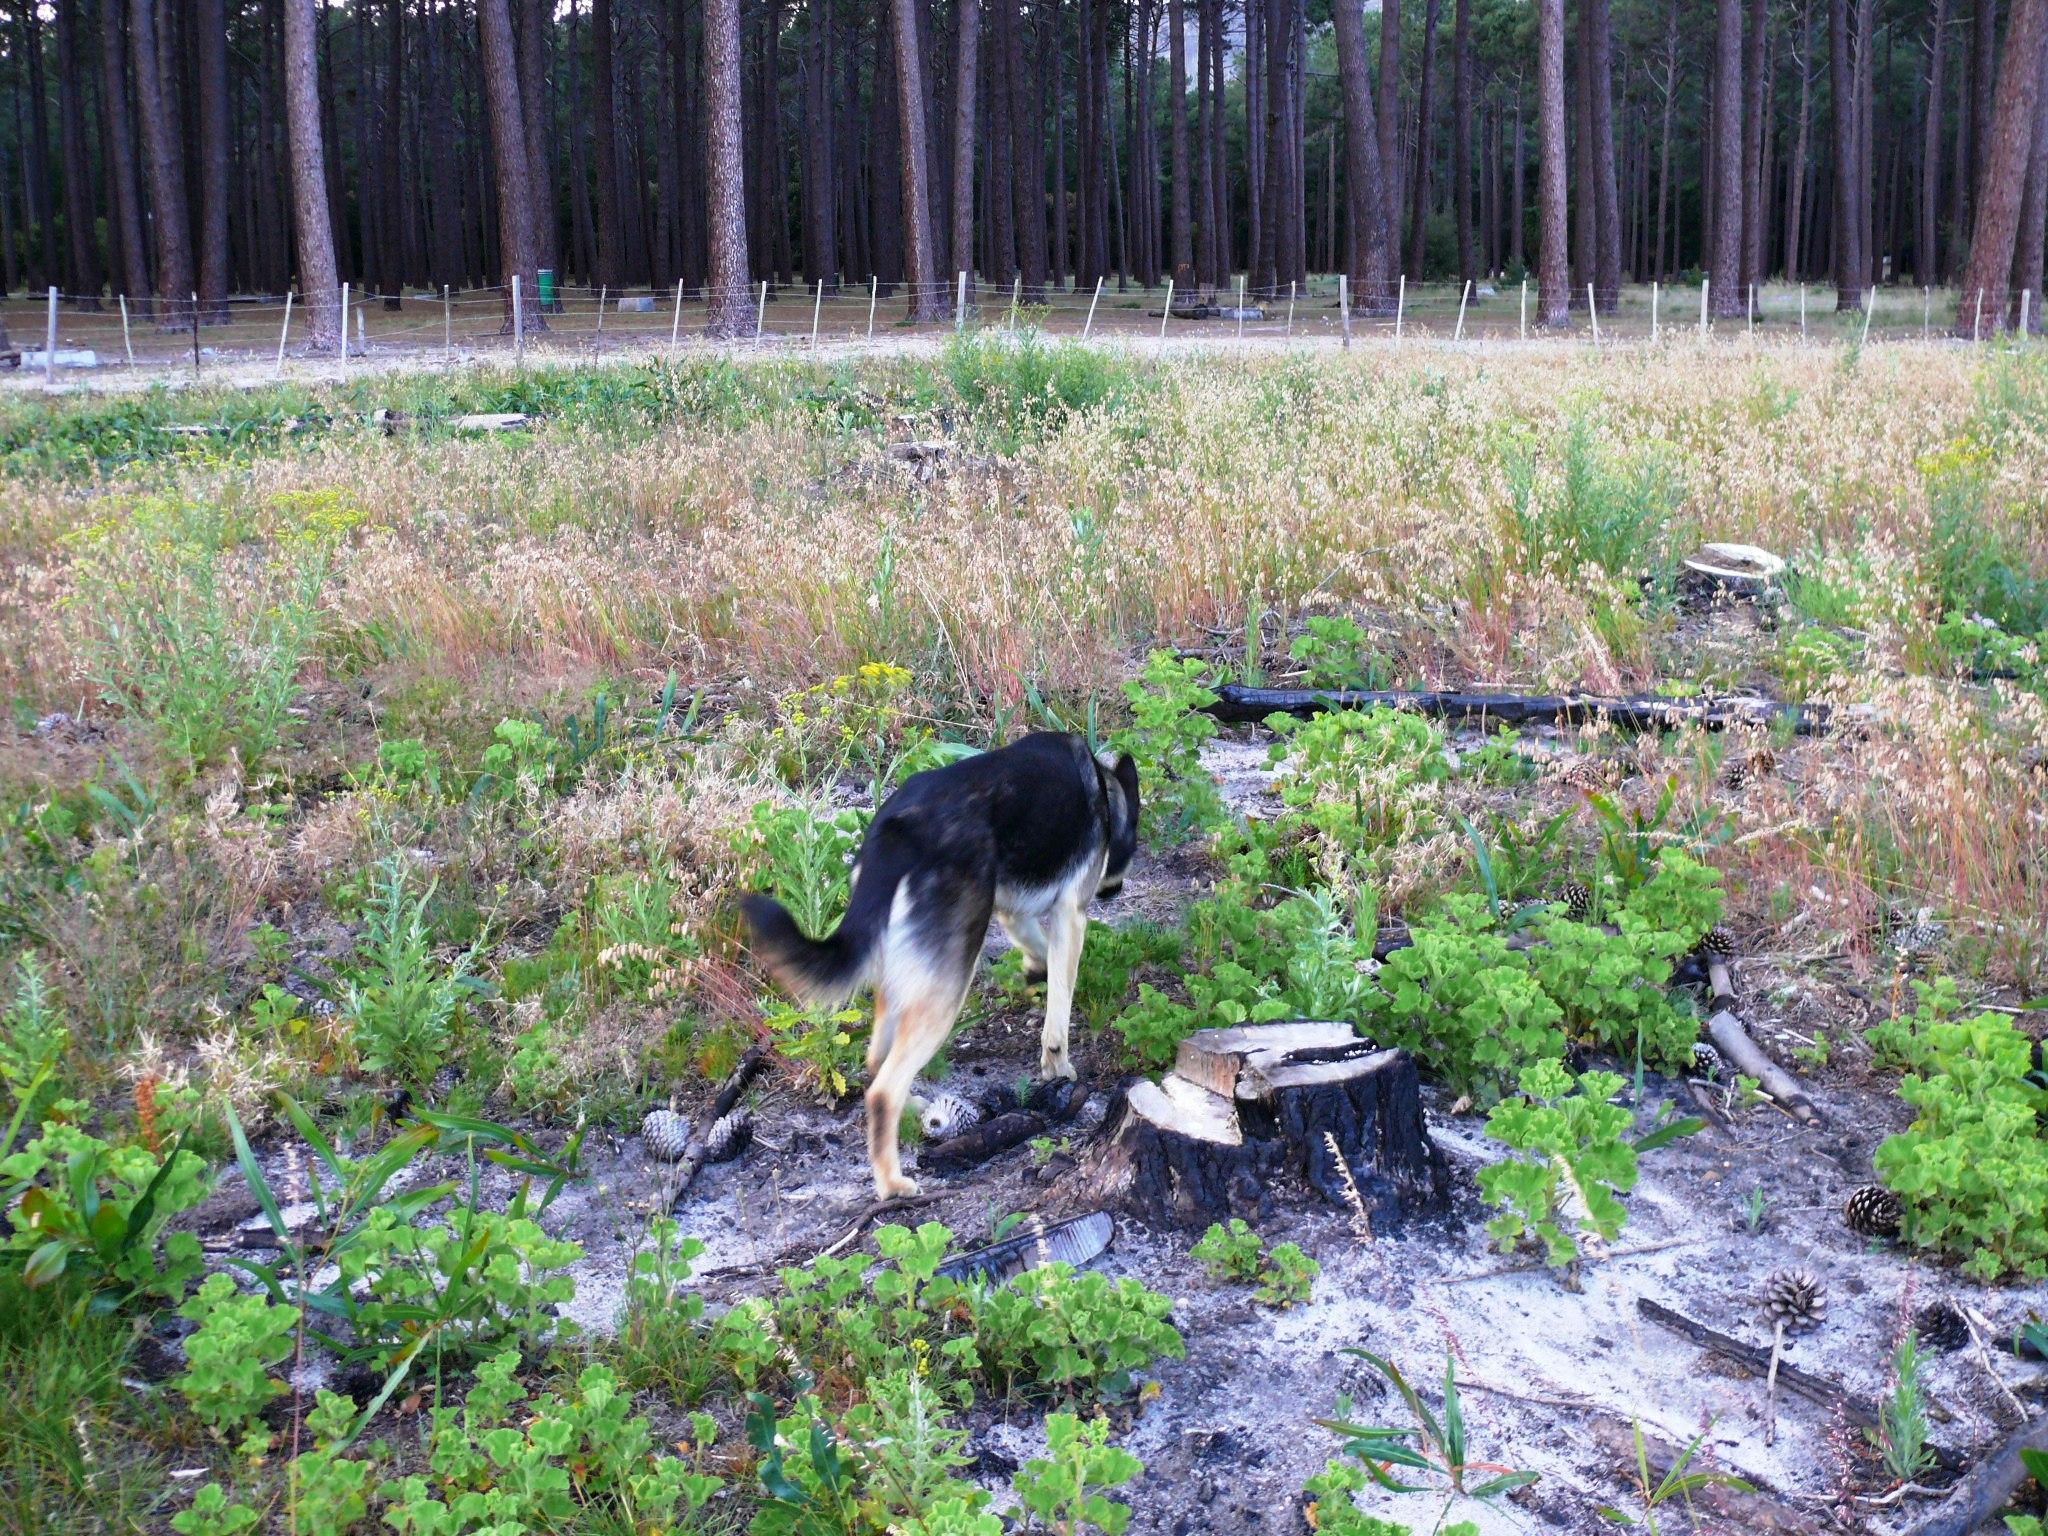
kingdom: Plantae
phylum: Tracheophyta
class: Magnoliopsida
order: Geraniales
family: Geraniaceae
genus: Pelargonium
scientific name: Pelargonium cucullatum
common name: Tree pelargonium
